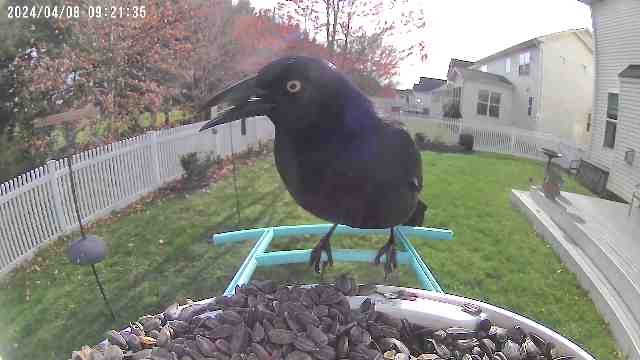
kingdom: Animalia
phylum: Chordata
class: Aves
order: Passeriformes
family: Icteridae
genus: Quiscalus
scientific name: Quiscalus quiscula
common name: Common grackle
